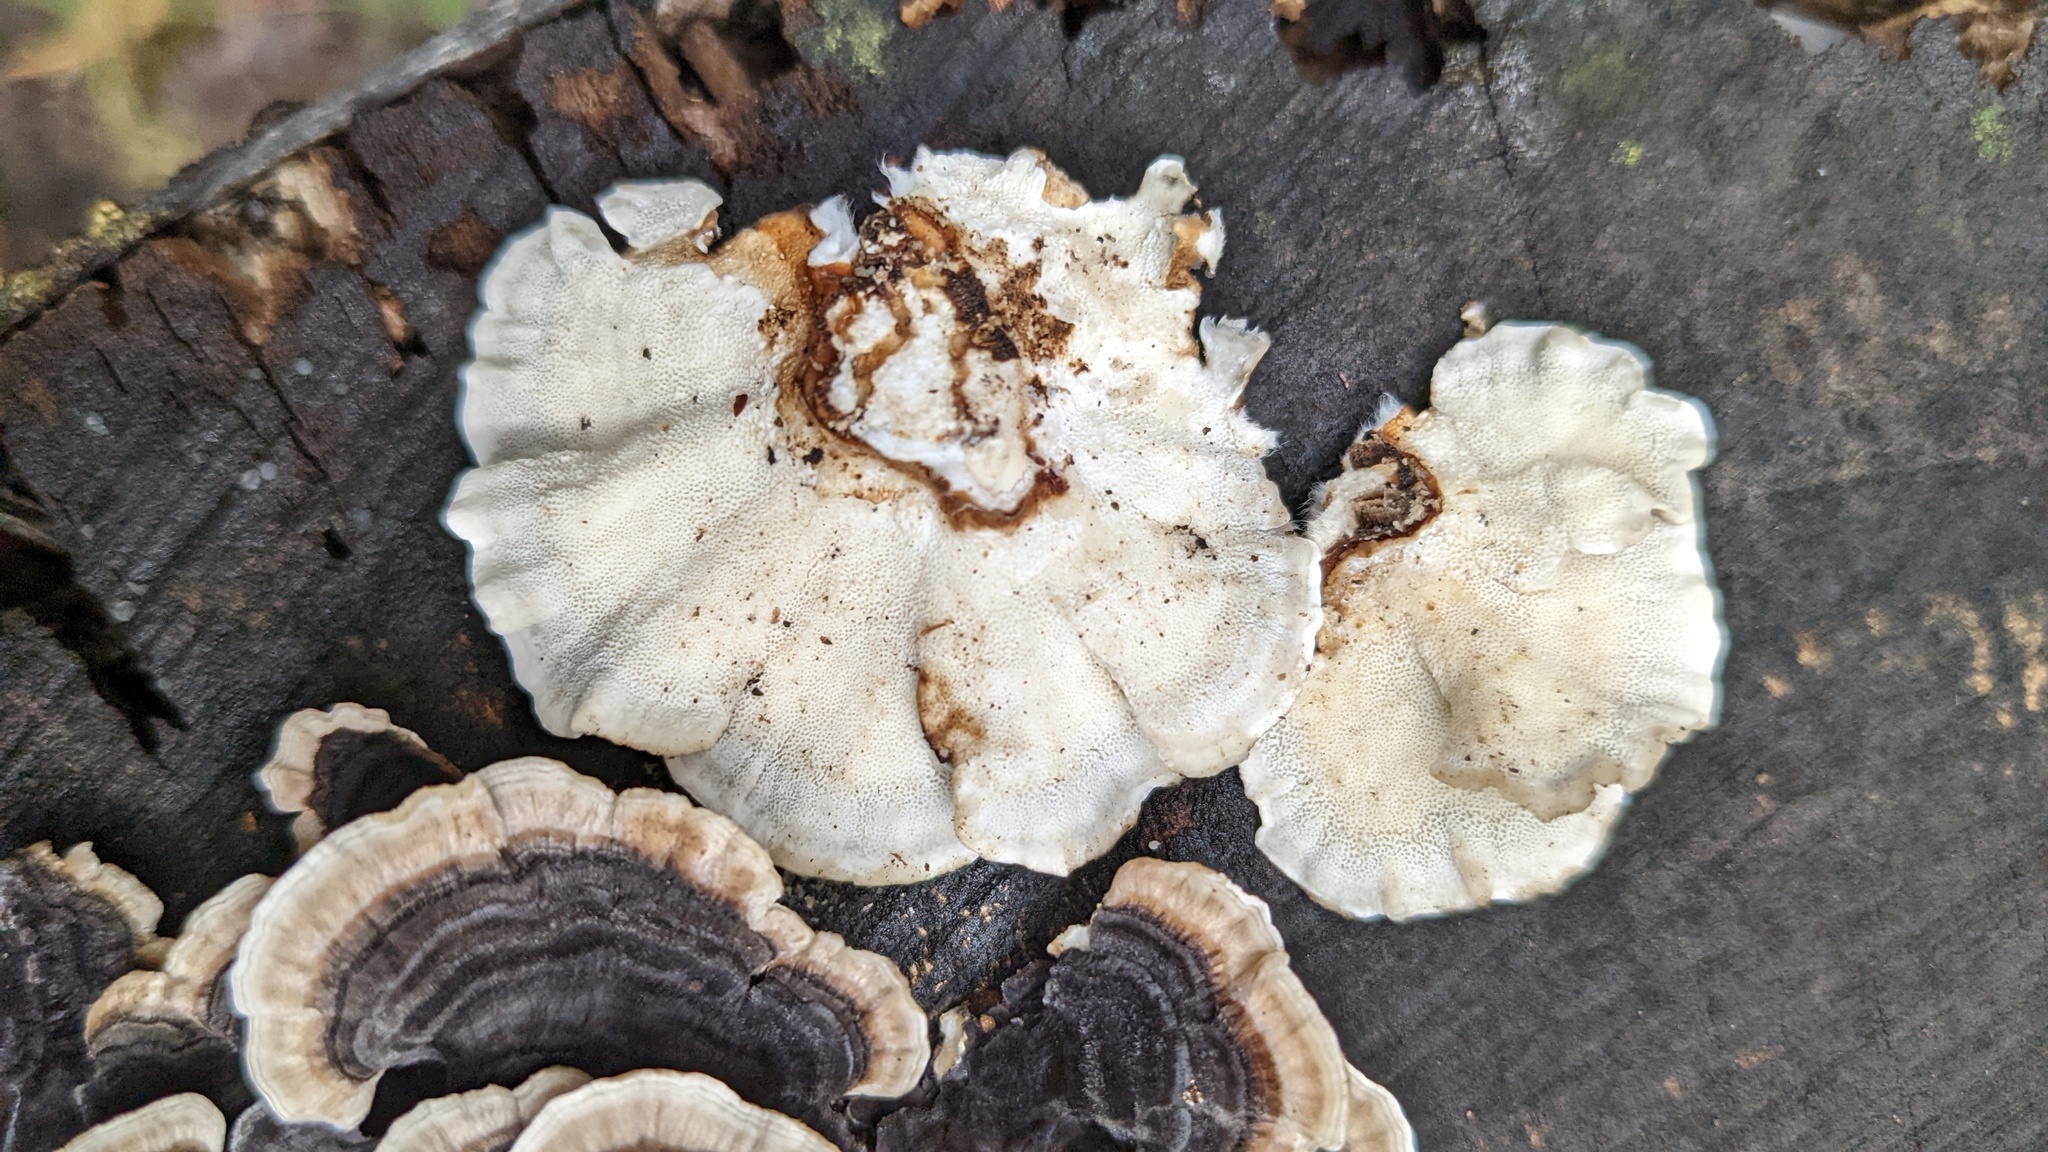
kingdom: Fungi
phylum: Basidiomycota
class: Agaricomycetes
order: Polyporales
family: Polyporaceae
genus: Trametes
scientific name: Trametes versicolor
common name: Turkeytail
